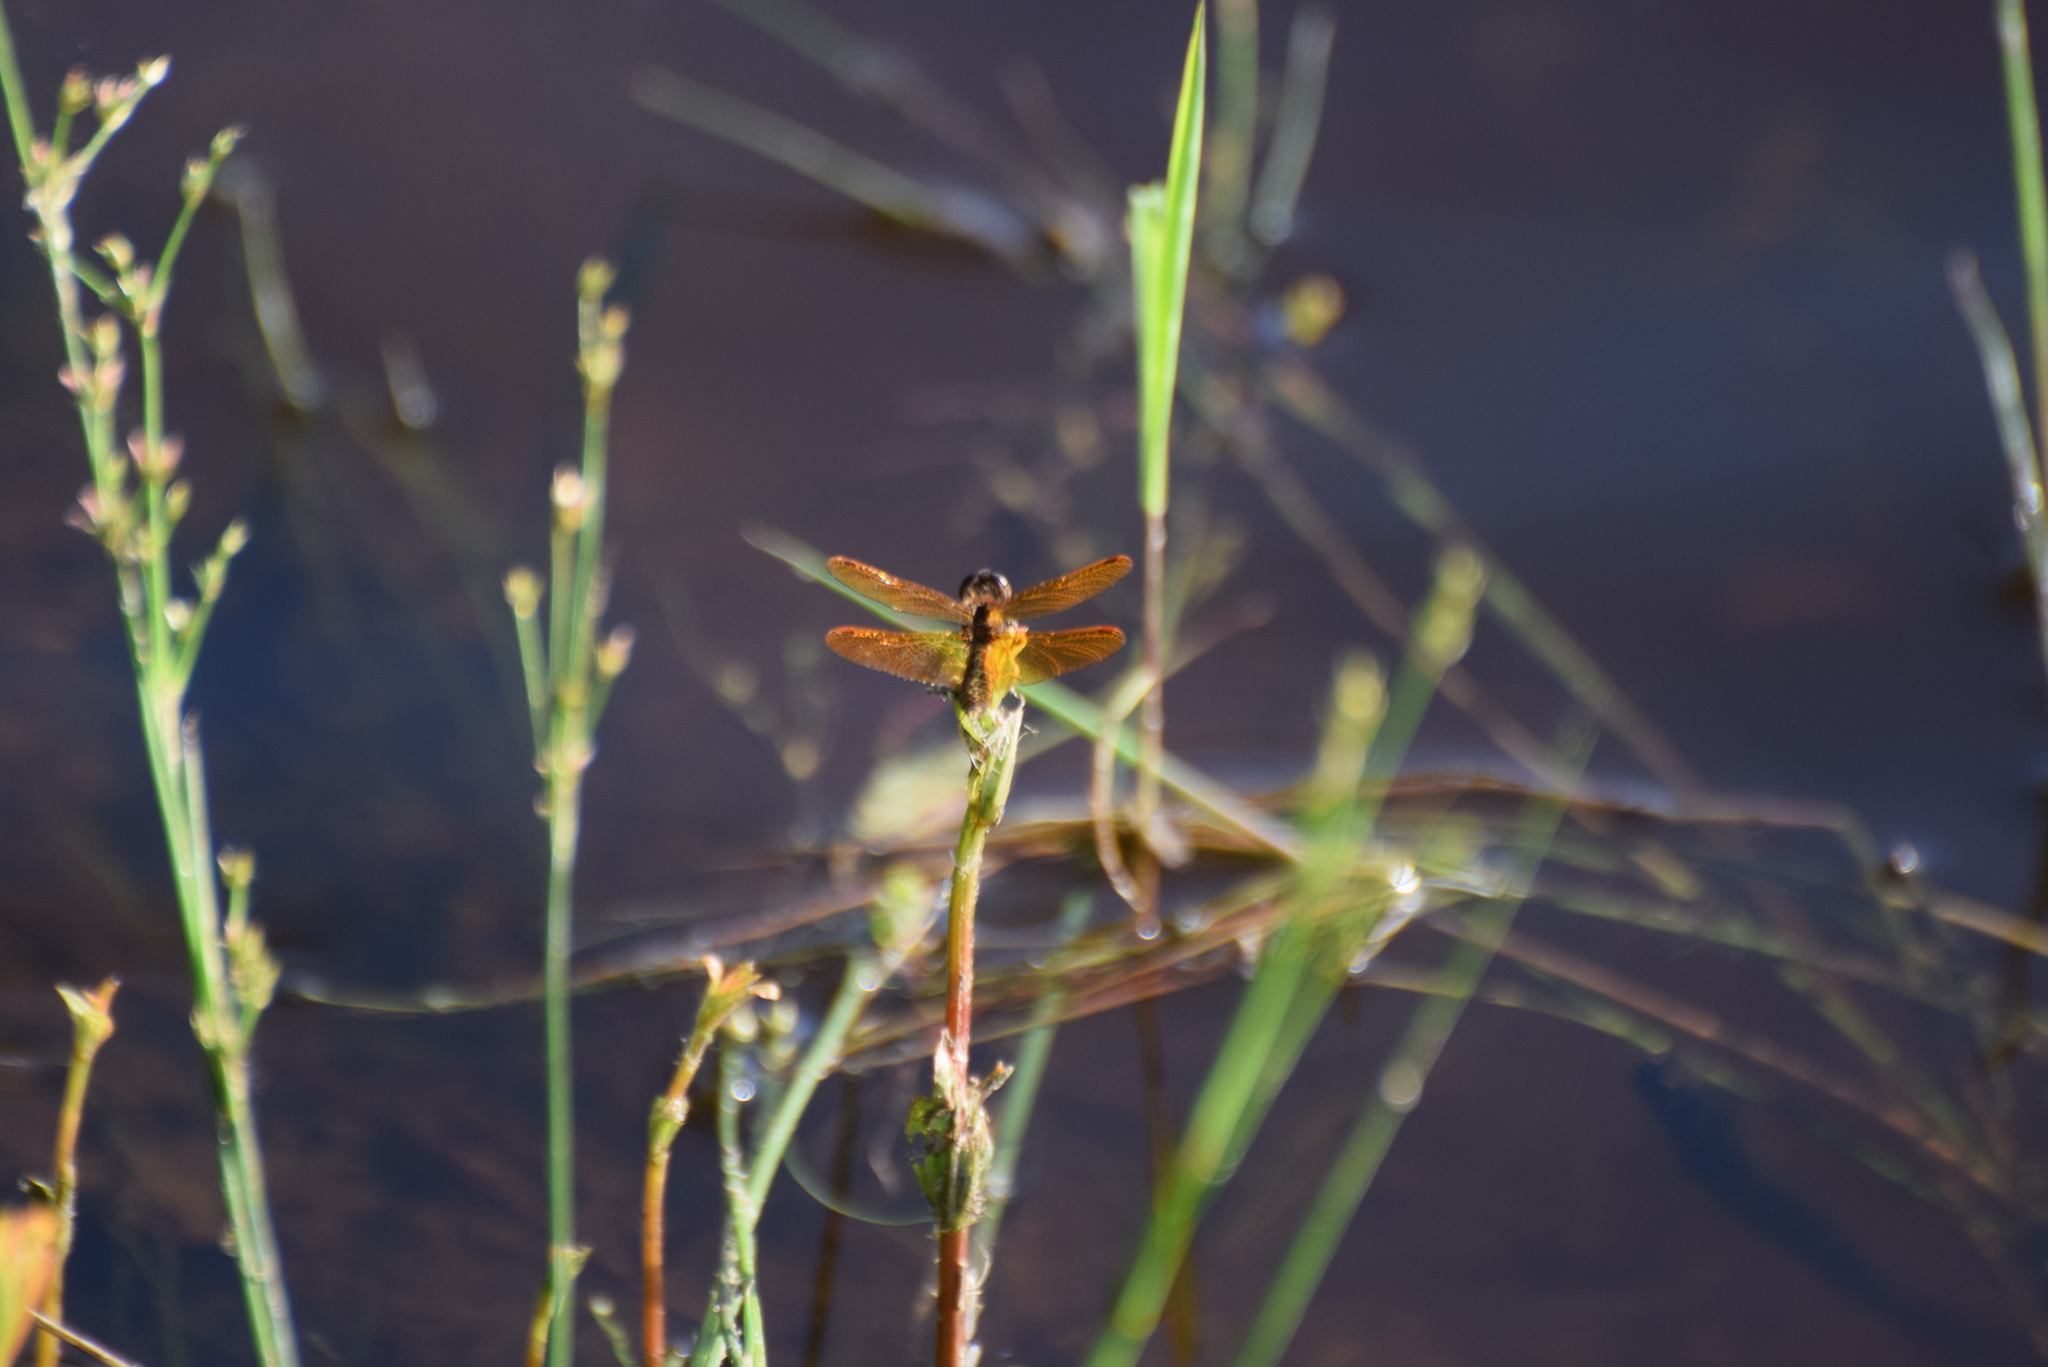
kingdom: Animalia
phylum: Arthropoda
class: Insecta
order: Odonata
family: Libellulidae
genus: Perithemis
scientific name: Perithemis tenera
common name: Eastern amberwing
